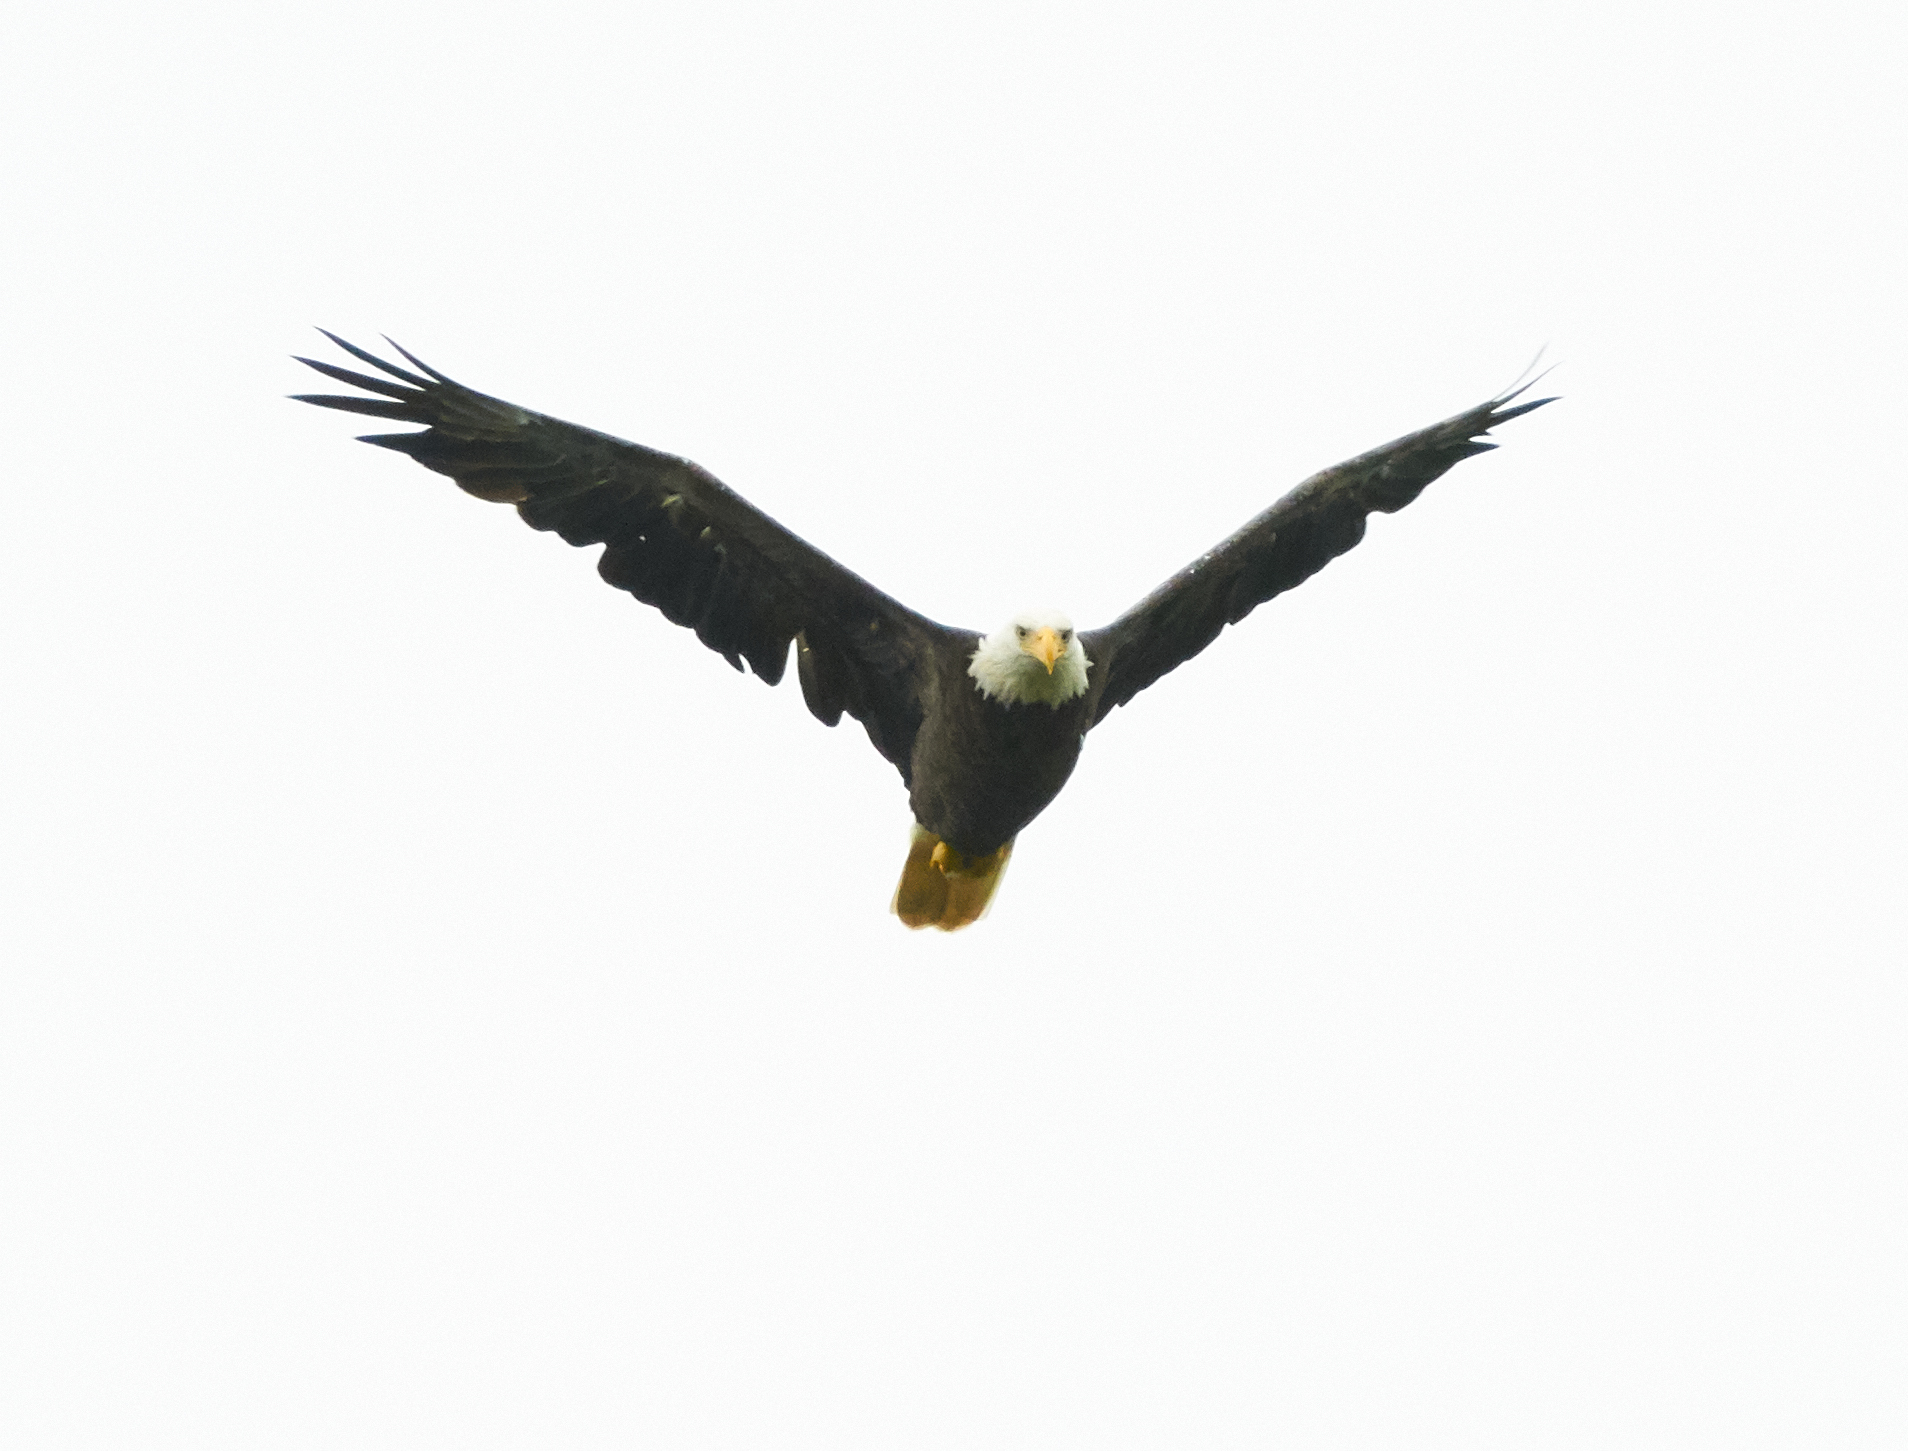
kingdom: Animalia
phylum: Chordata
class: Aves
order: Accipitriformes
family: Accipitridae
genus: Haliaeetus
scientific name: Haliaeetus leucocephalus
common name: Bald eagle
